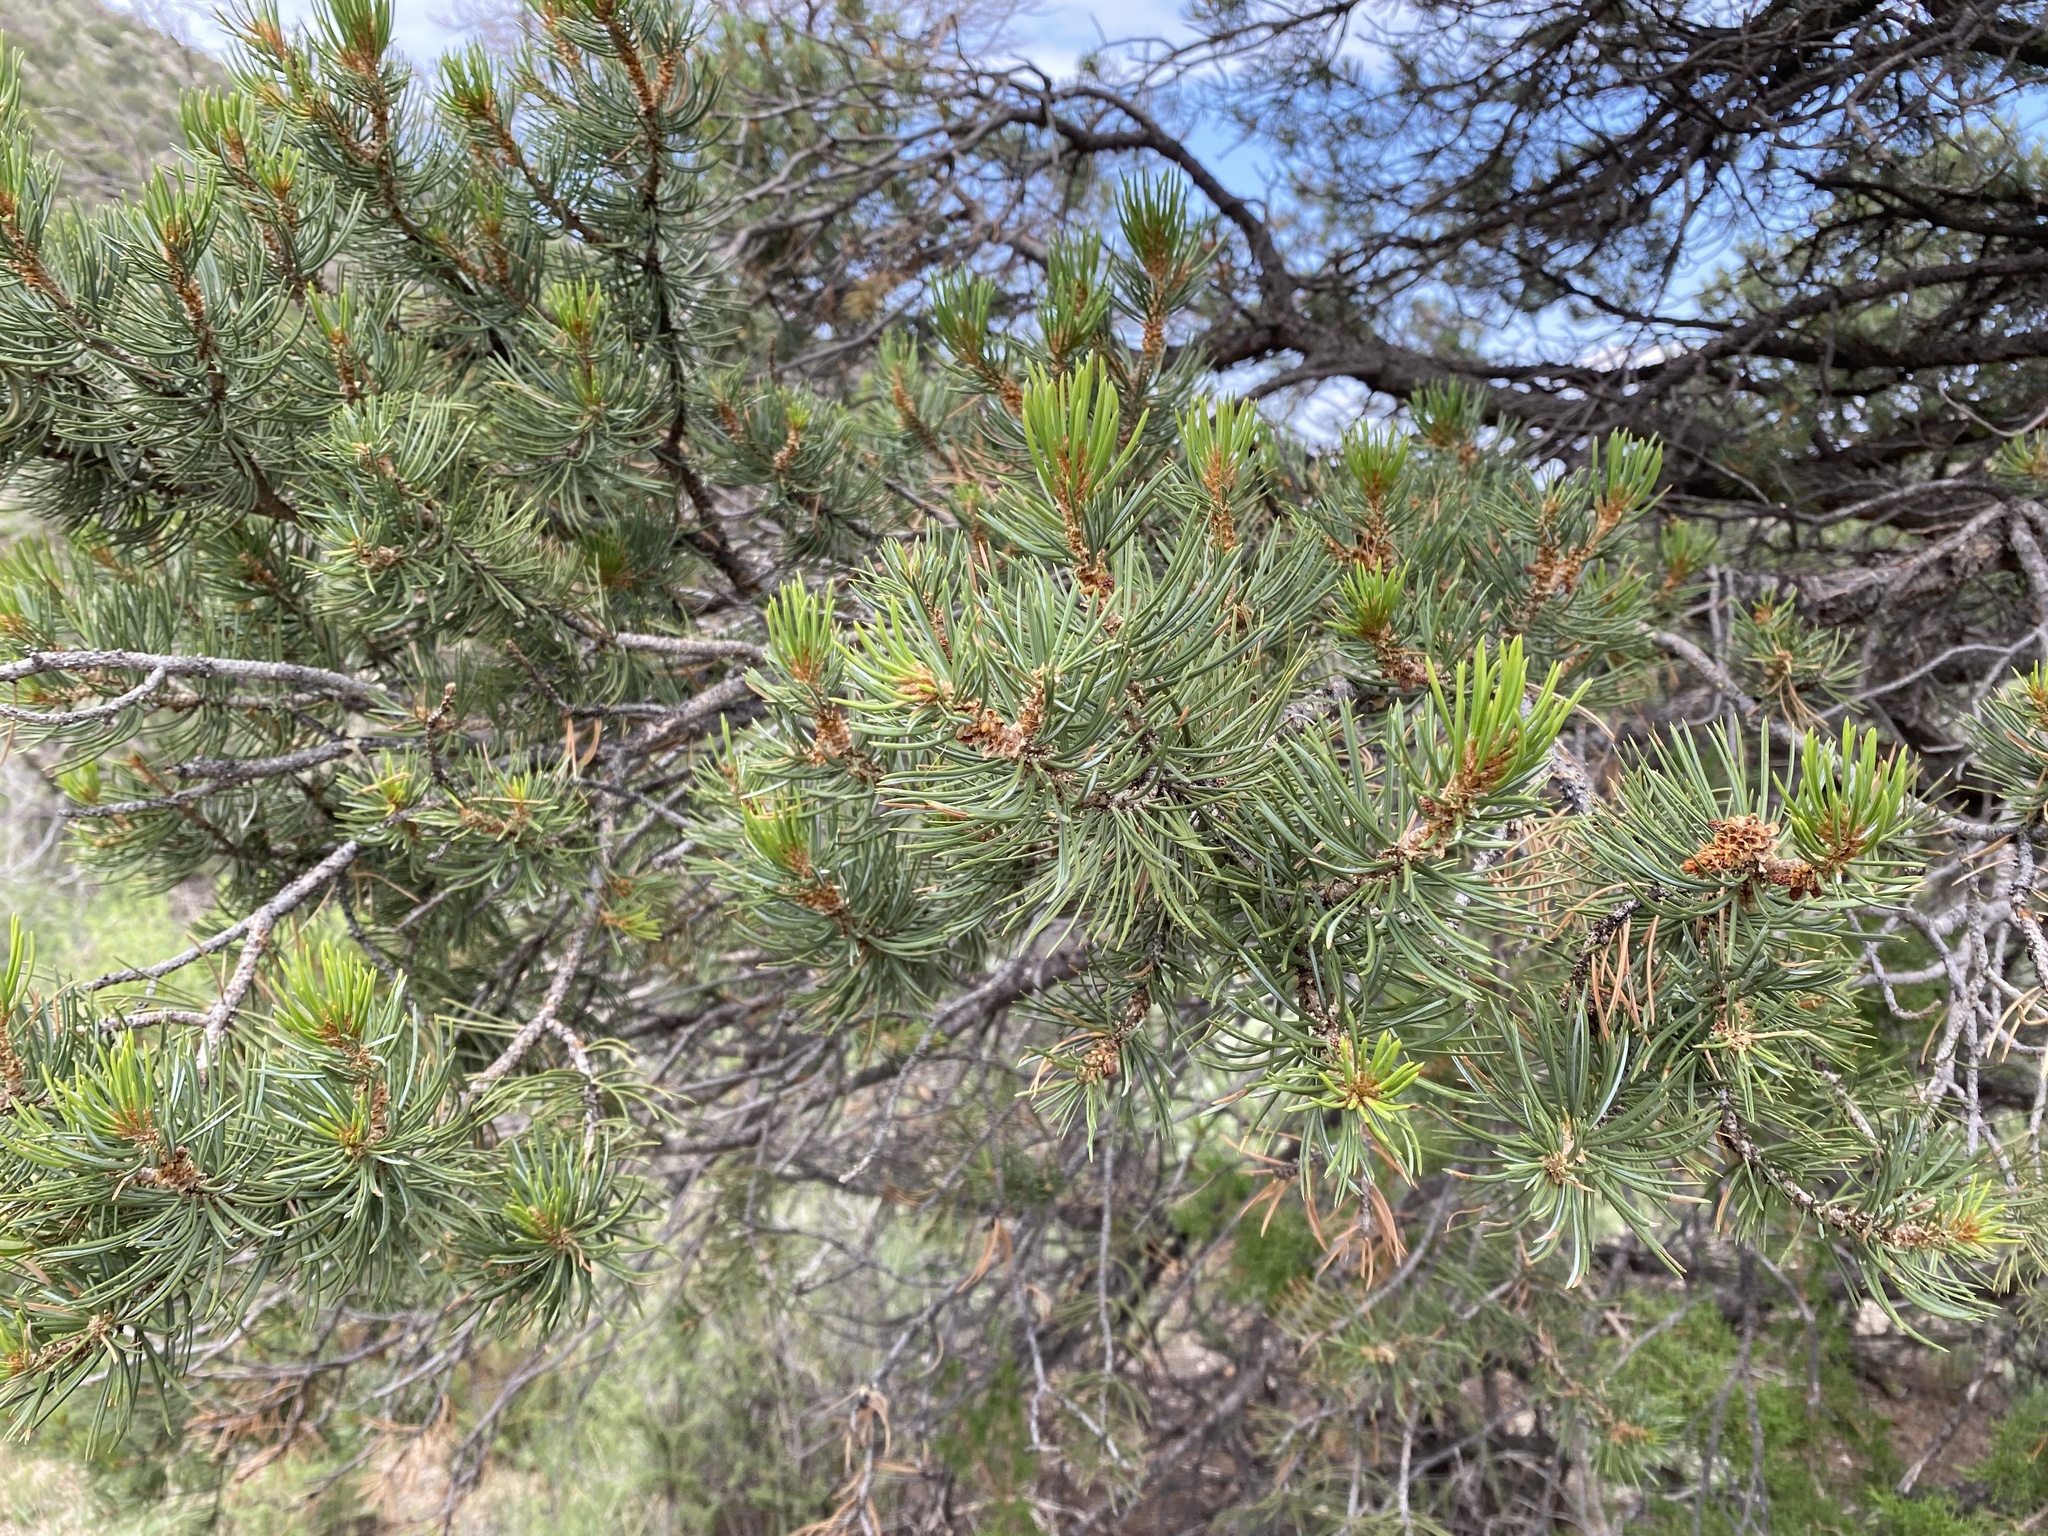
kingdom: Plantae
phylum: Tracheophyta
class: Pinopsida
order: Pinales
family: Pinaceae
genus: Pinus
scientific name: Pinus edulis
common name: Colorado pinyon
